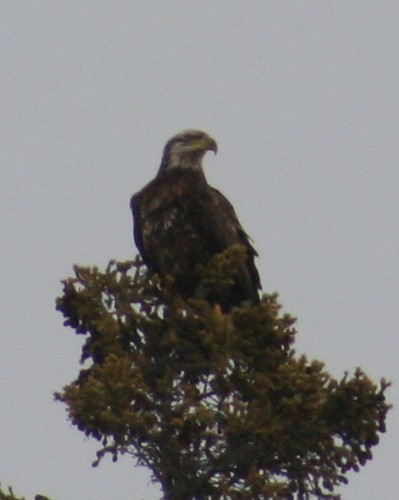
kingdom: Animalia
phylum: Chordata
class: Aves
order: Accipitriformes
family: Accipitridae
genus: Haliaeetus
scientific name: Haliaeetus leucocephalus
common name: Bald eagle
